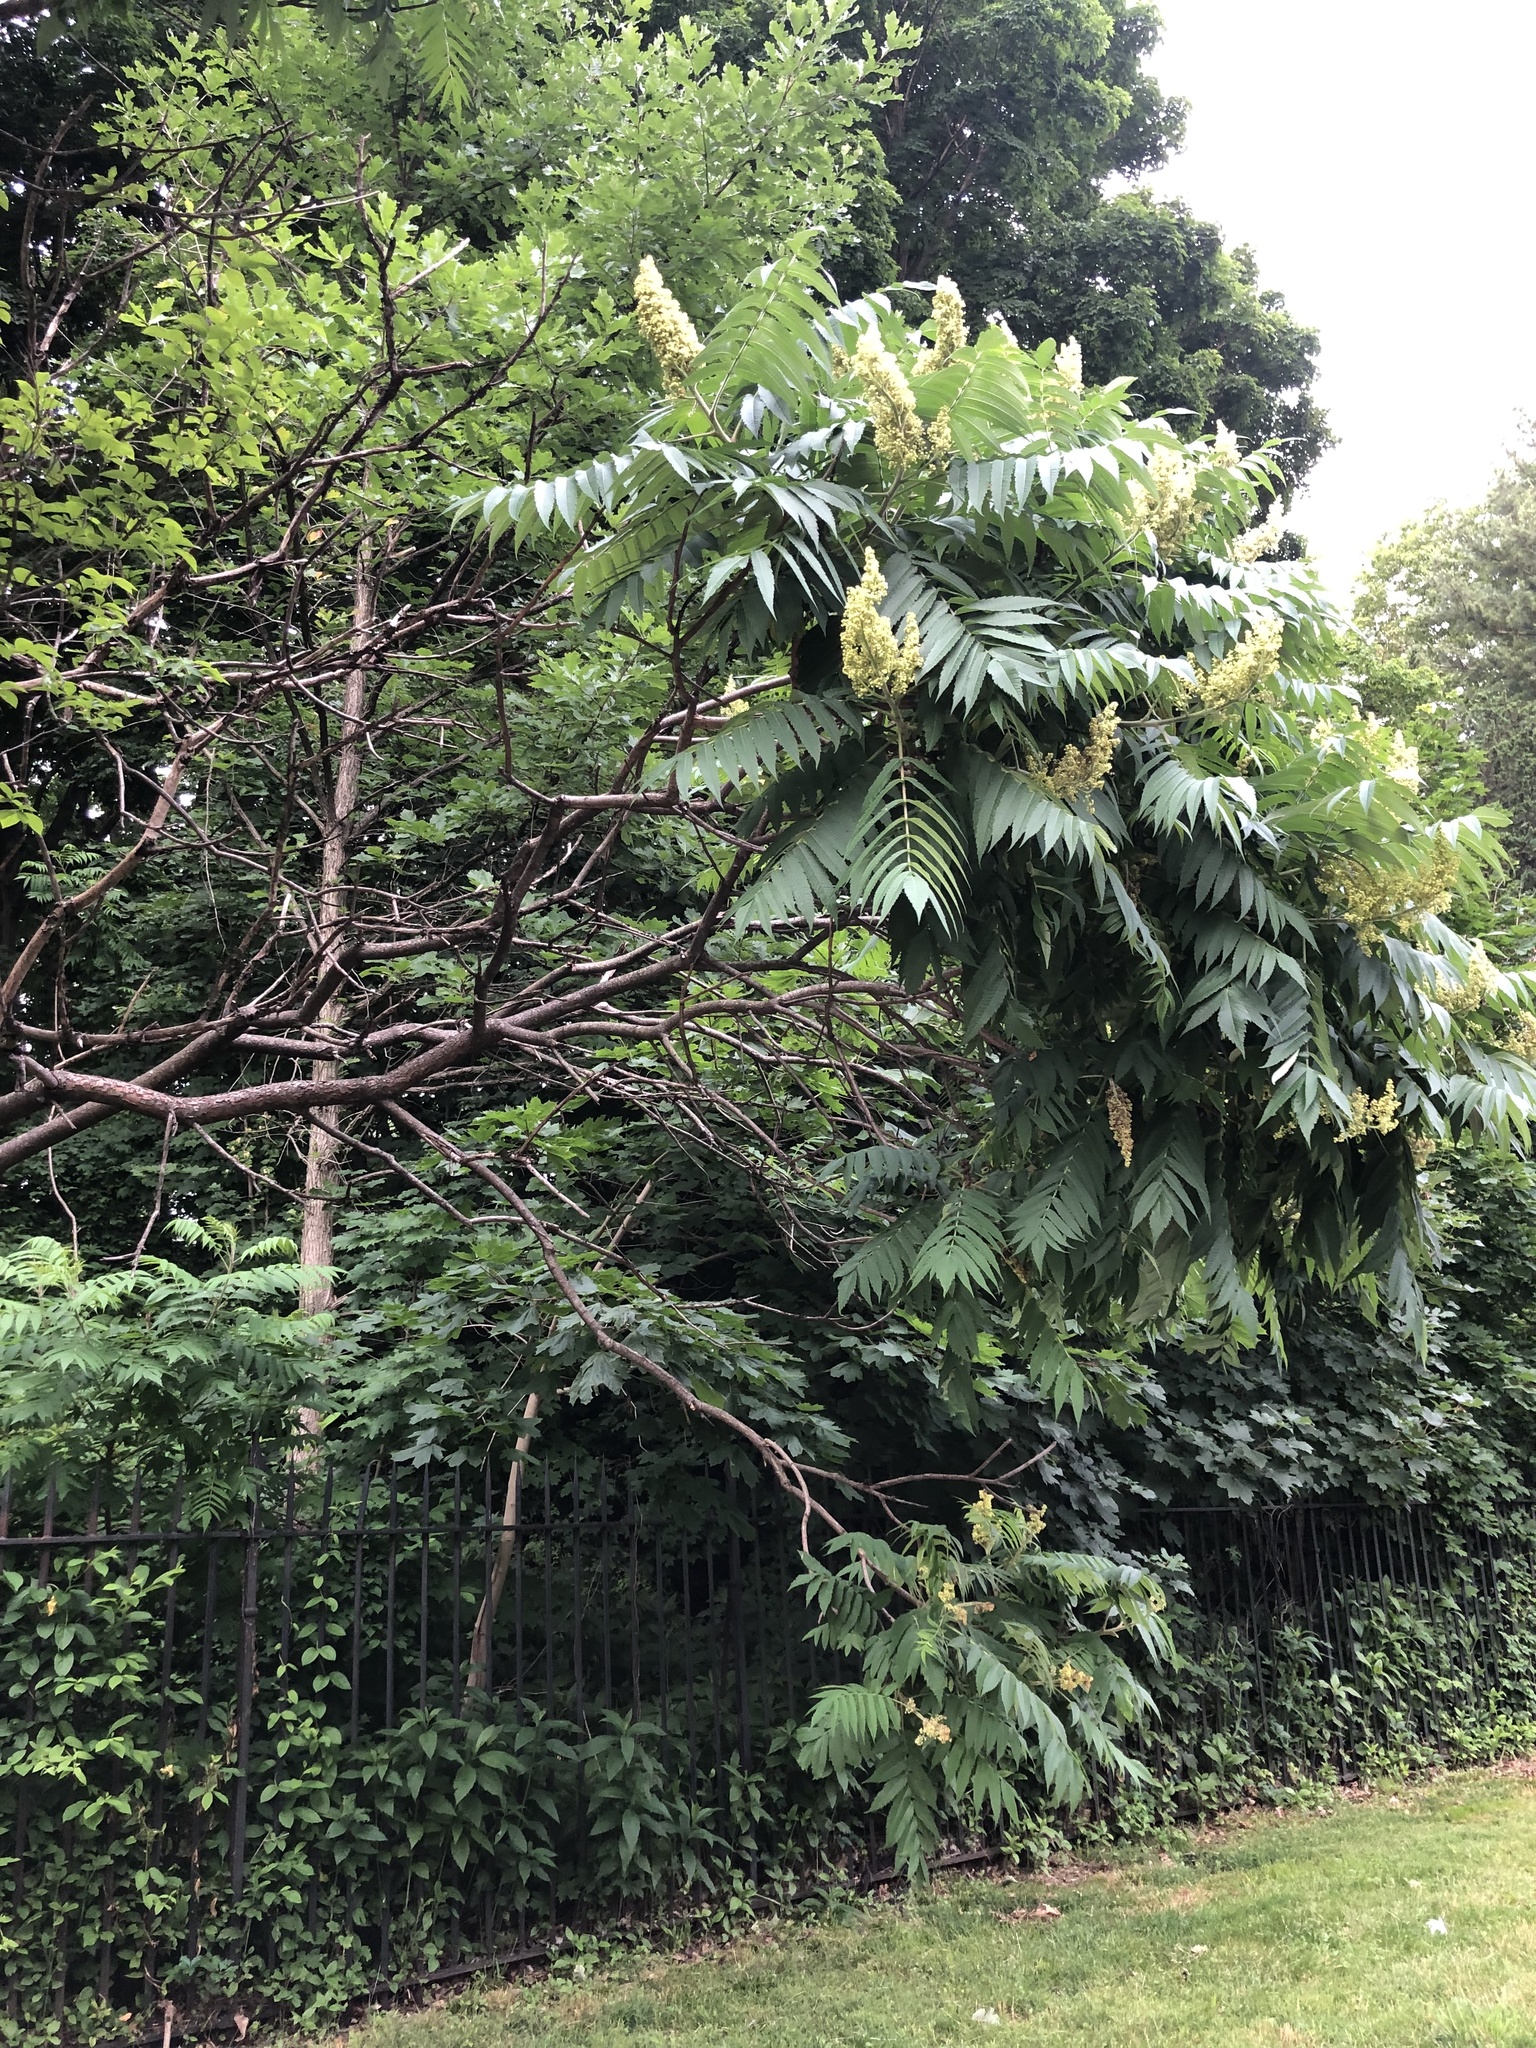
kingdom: Plantae
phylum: Tracheophyta
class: Magnoliopsida
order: Sapindales
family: Anacardiaceae
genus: Rhus
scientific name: Rhus typhina
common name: Staghorn sumac
